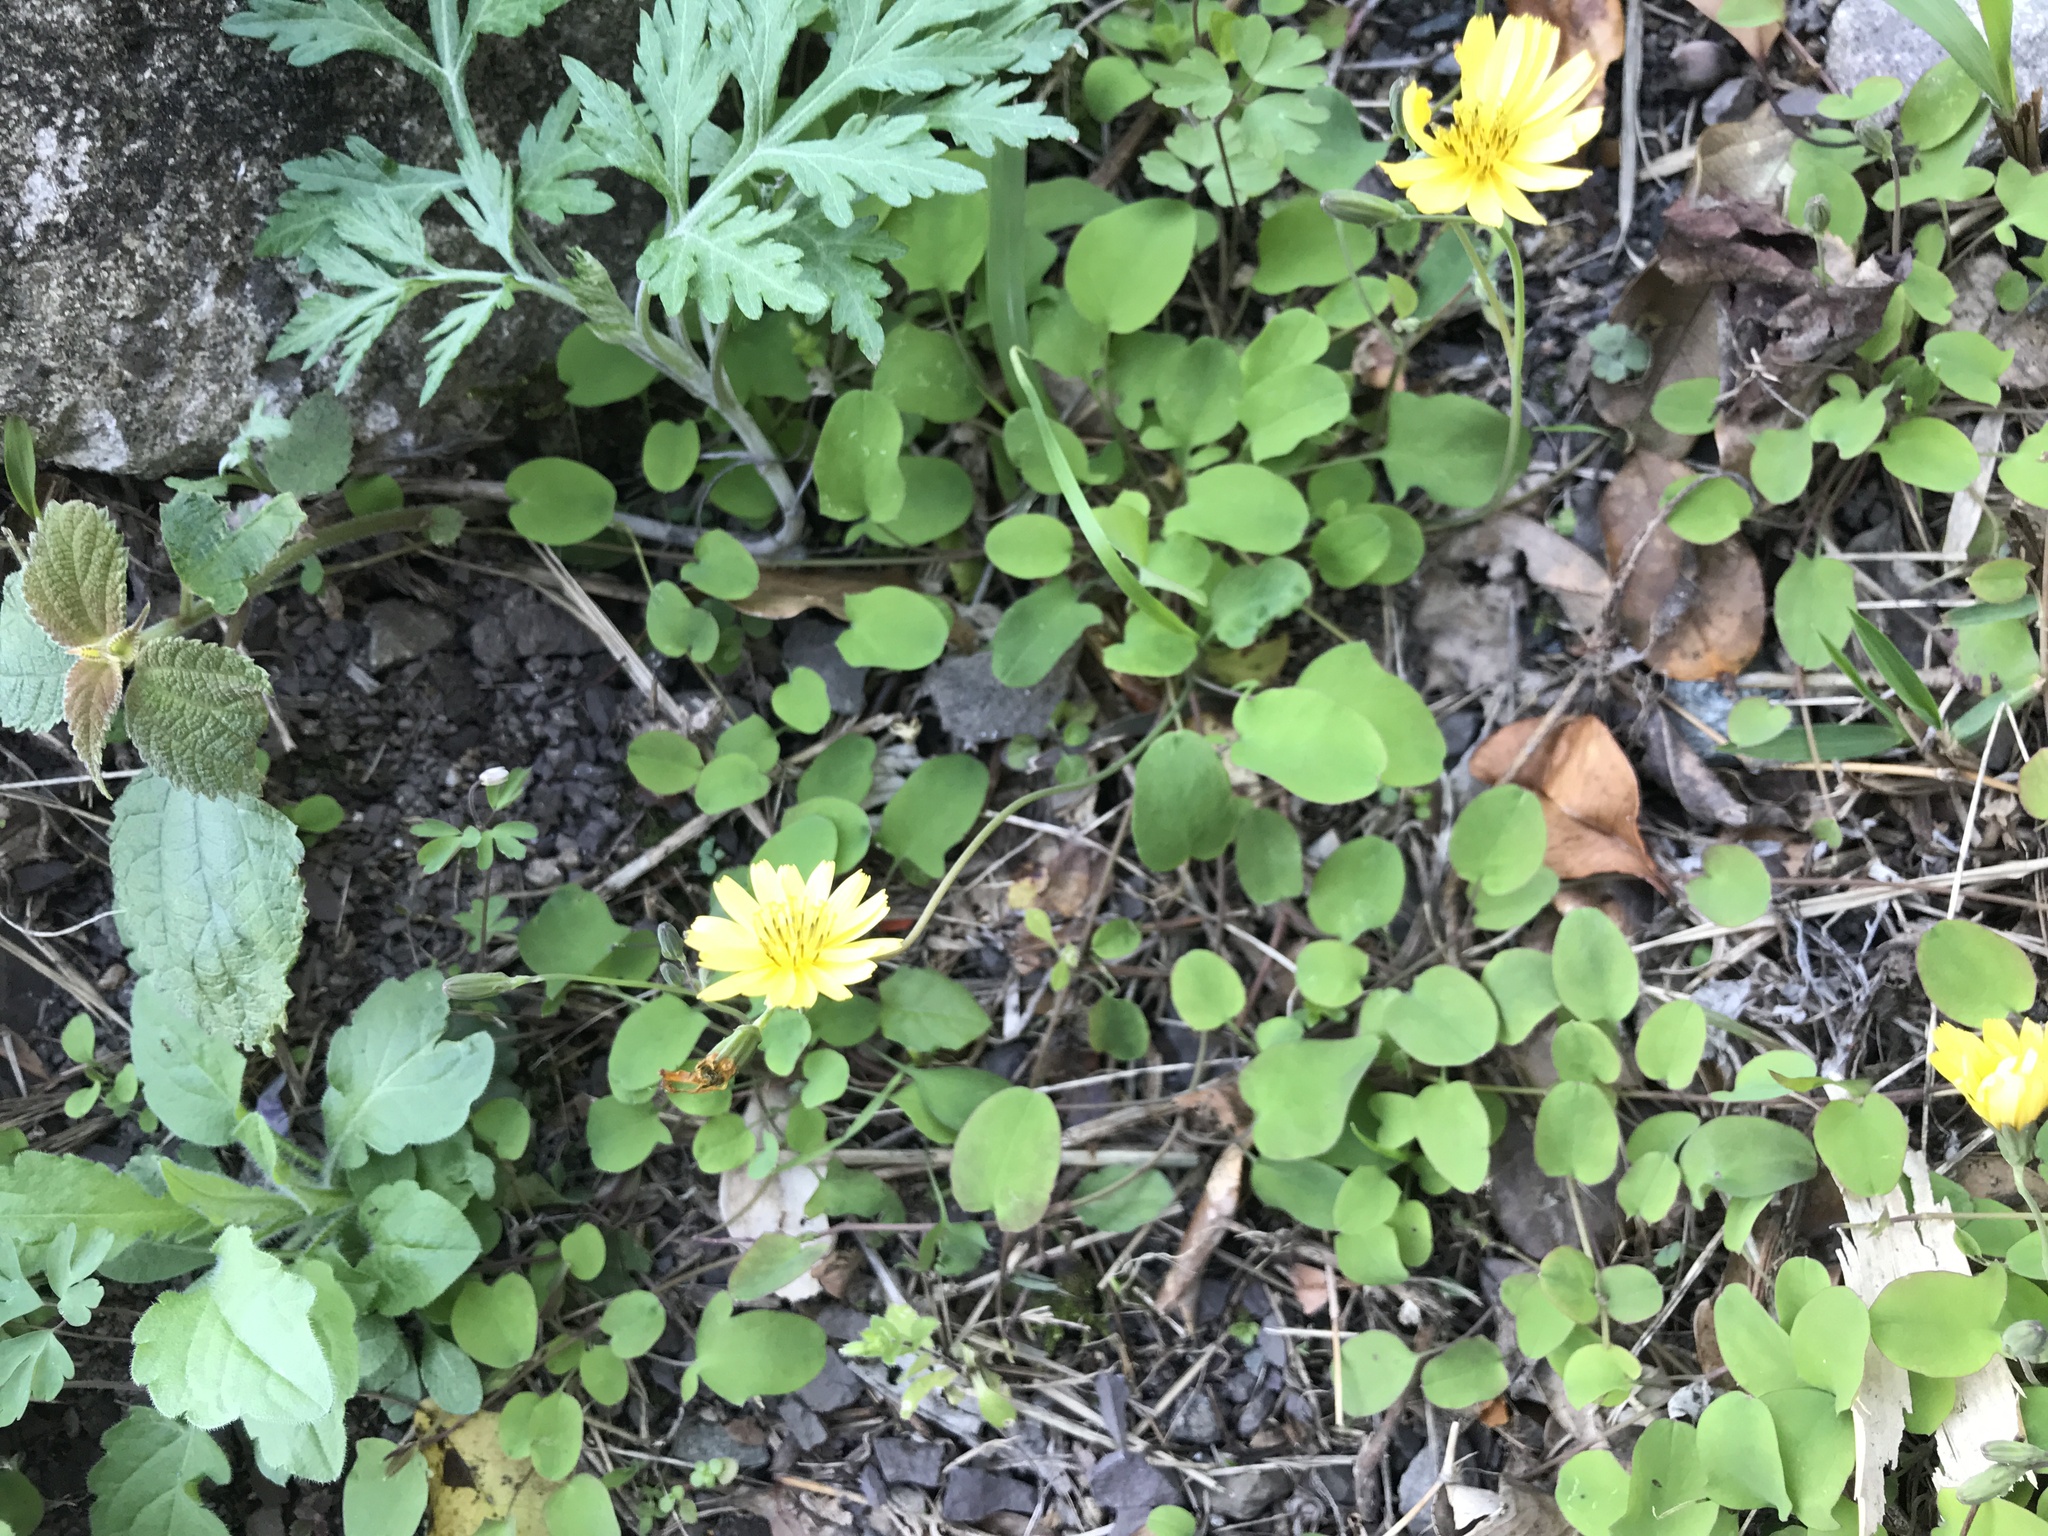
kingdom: Plantae
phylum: Tracheophyta
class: Magnoliopsida
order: Asterales
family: Asteraceae
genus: Ixeris
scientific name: Ixeris stolonifera
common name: Creeping lettuce
